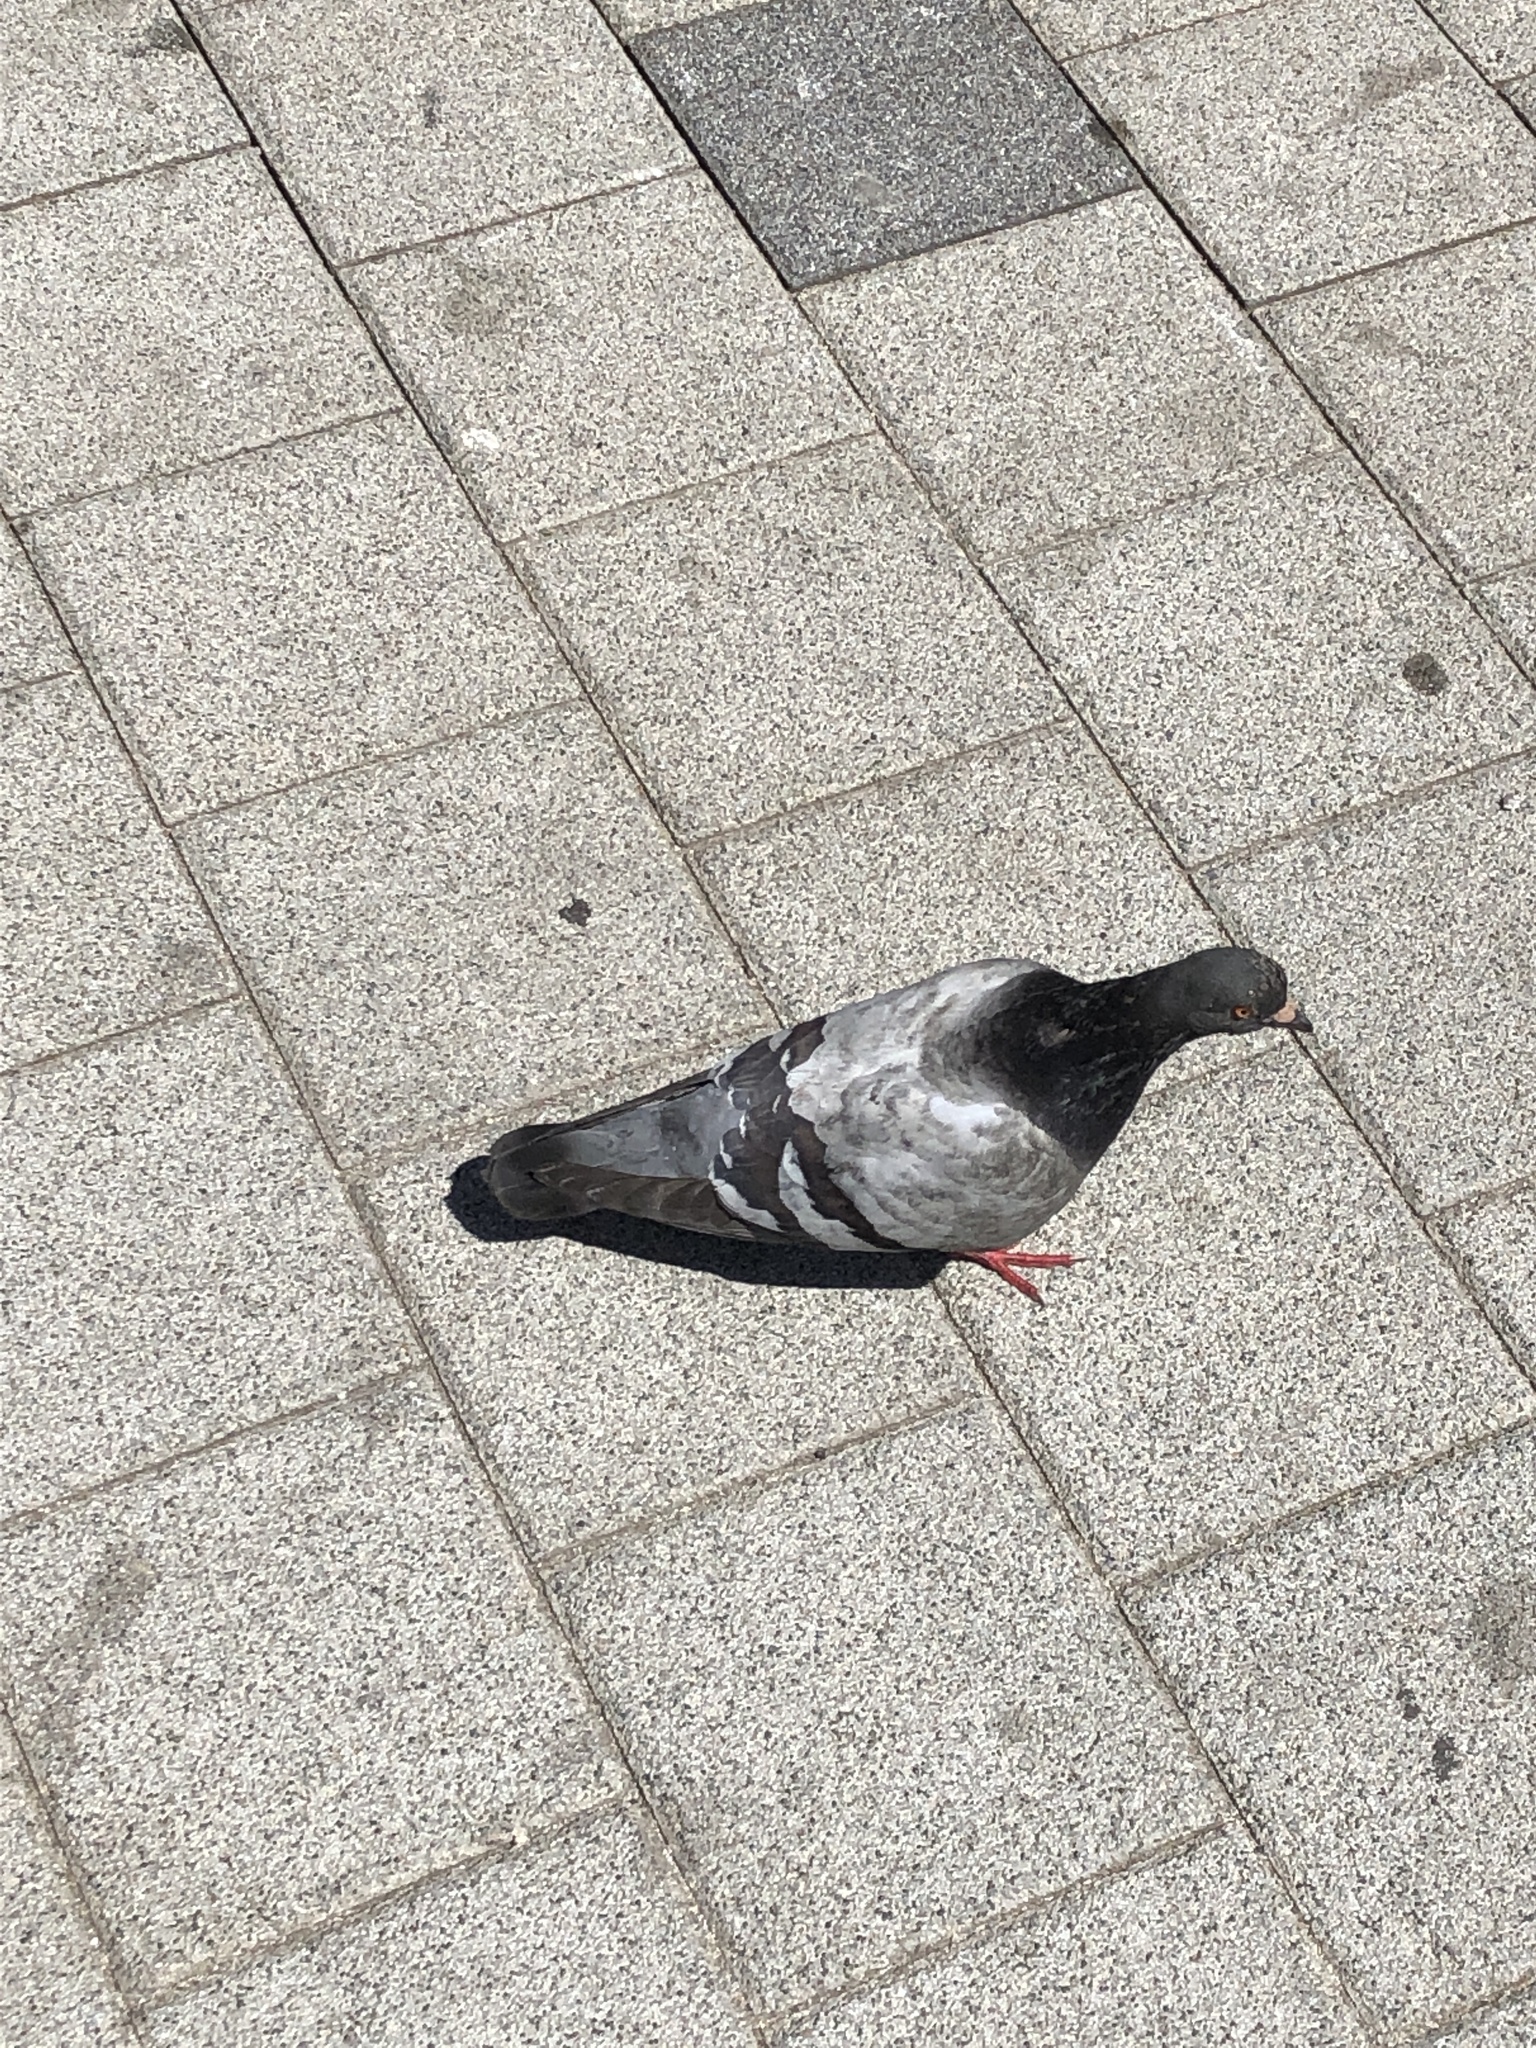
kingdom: Animalia
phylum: Chordata
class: Aves
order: Columbiformes
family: Columbidae
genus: Columba
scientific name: Columba livia
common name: Rock pigeon
